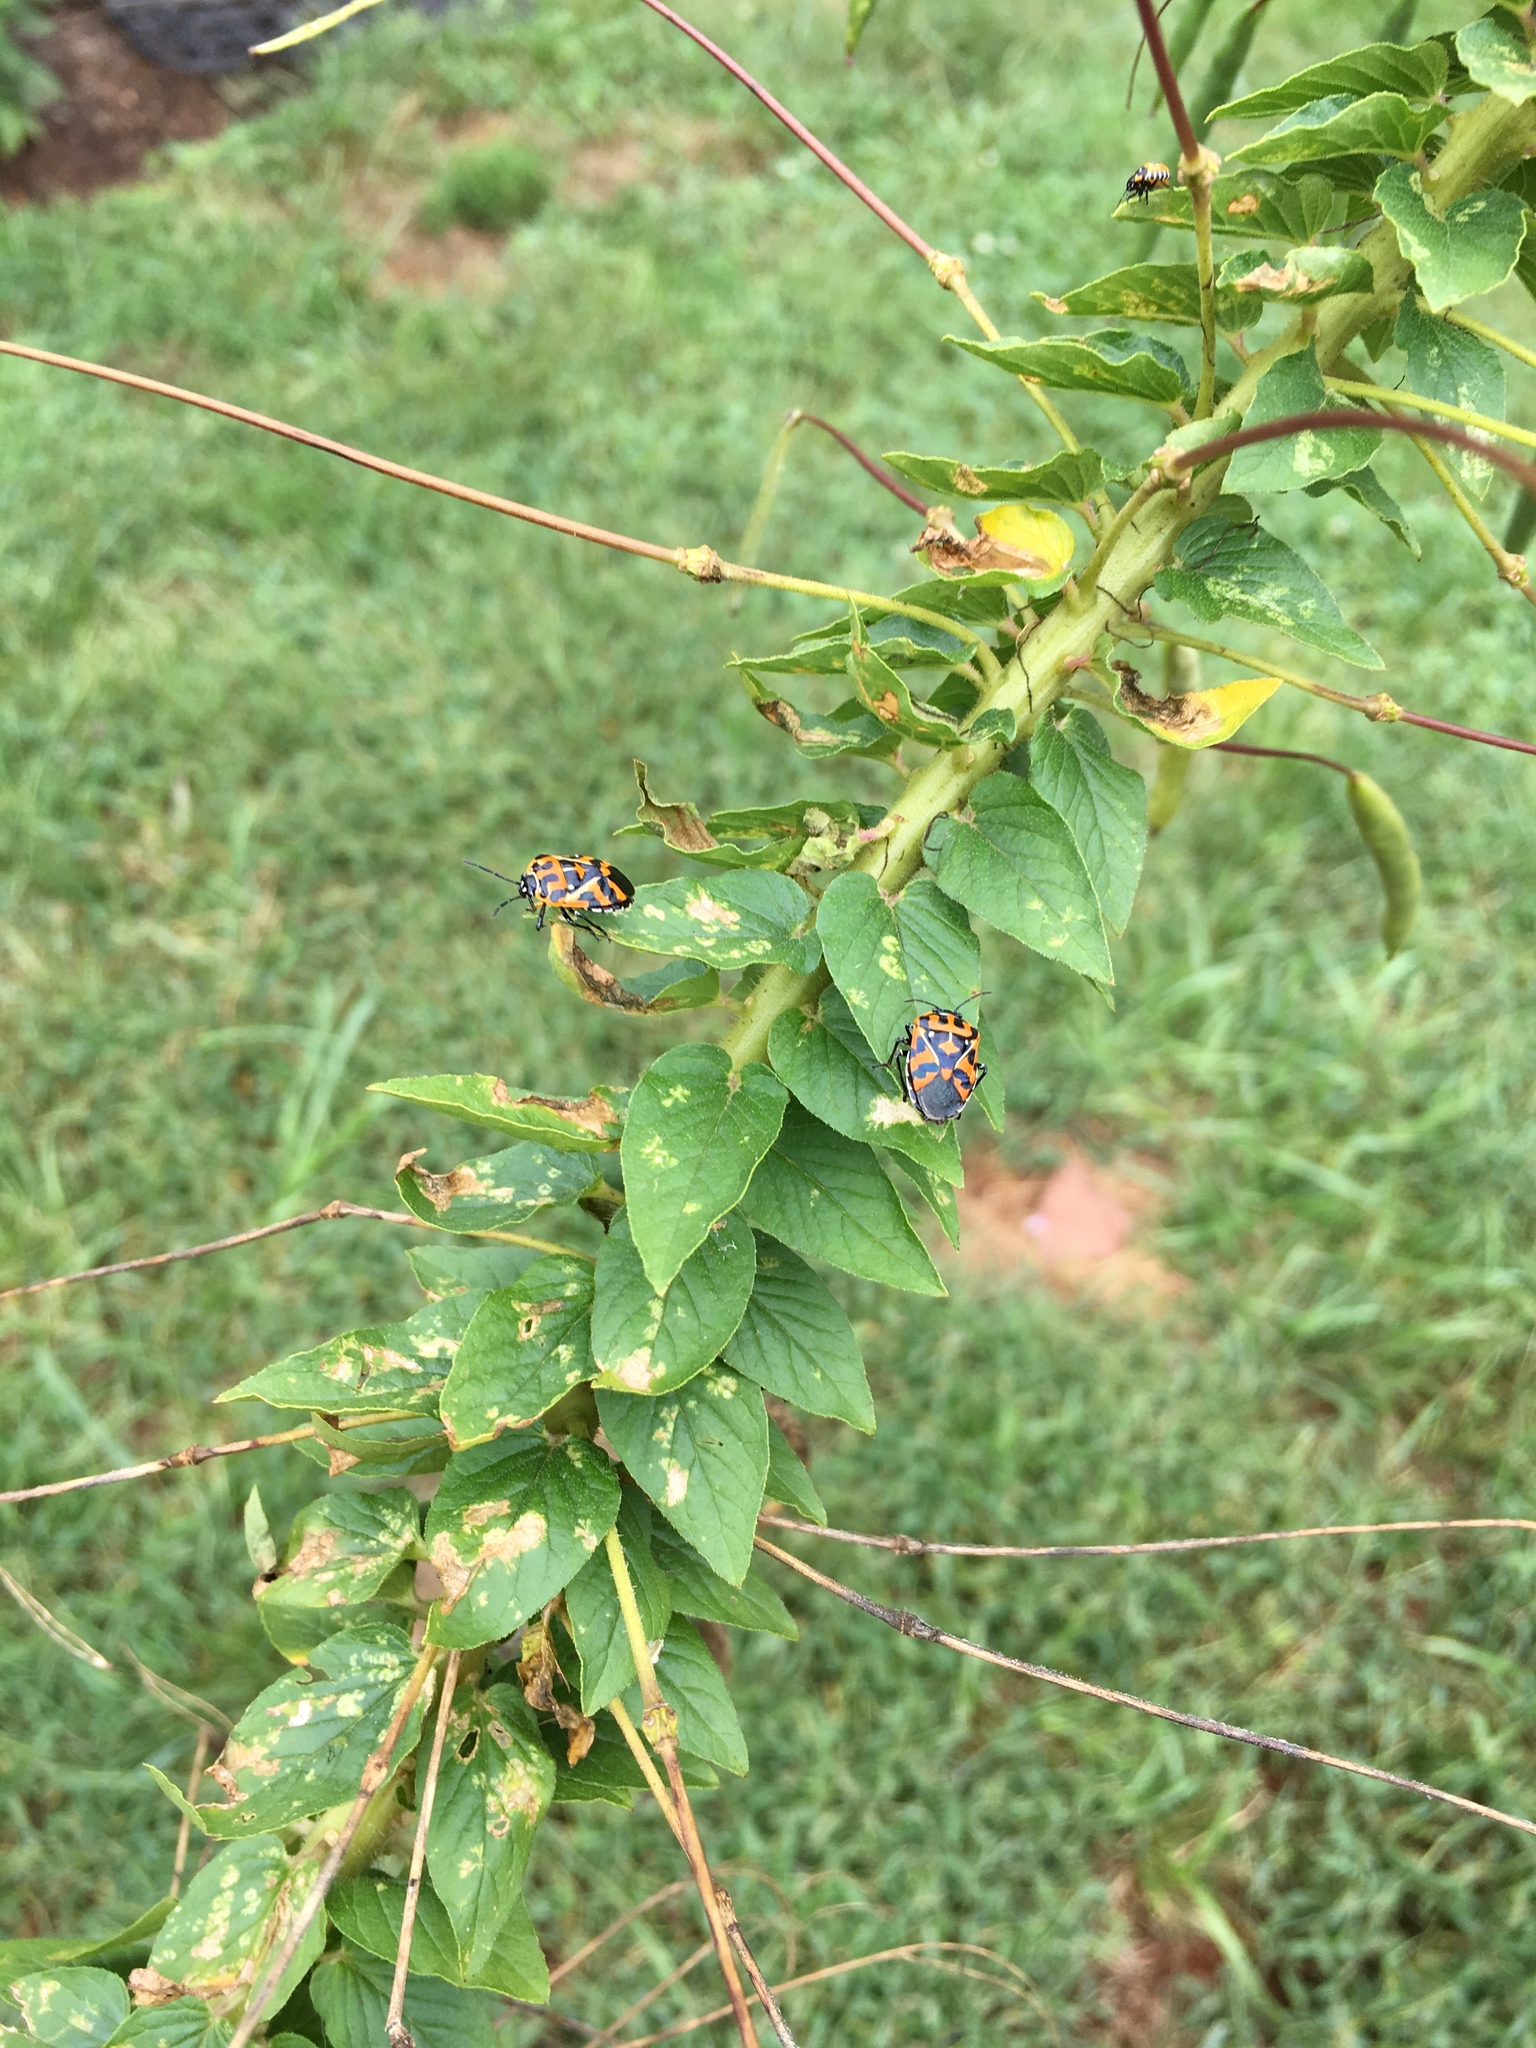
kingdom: Animalia
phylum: Arthropoda
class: Insecta
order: Hemiptera
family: Pentatomidae
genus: Murgantia
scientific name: Murgantia histrionica
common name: Harlequin bug
